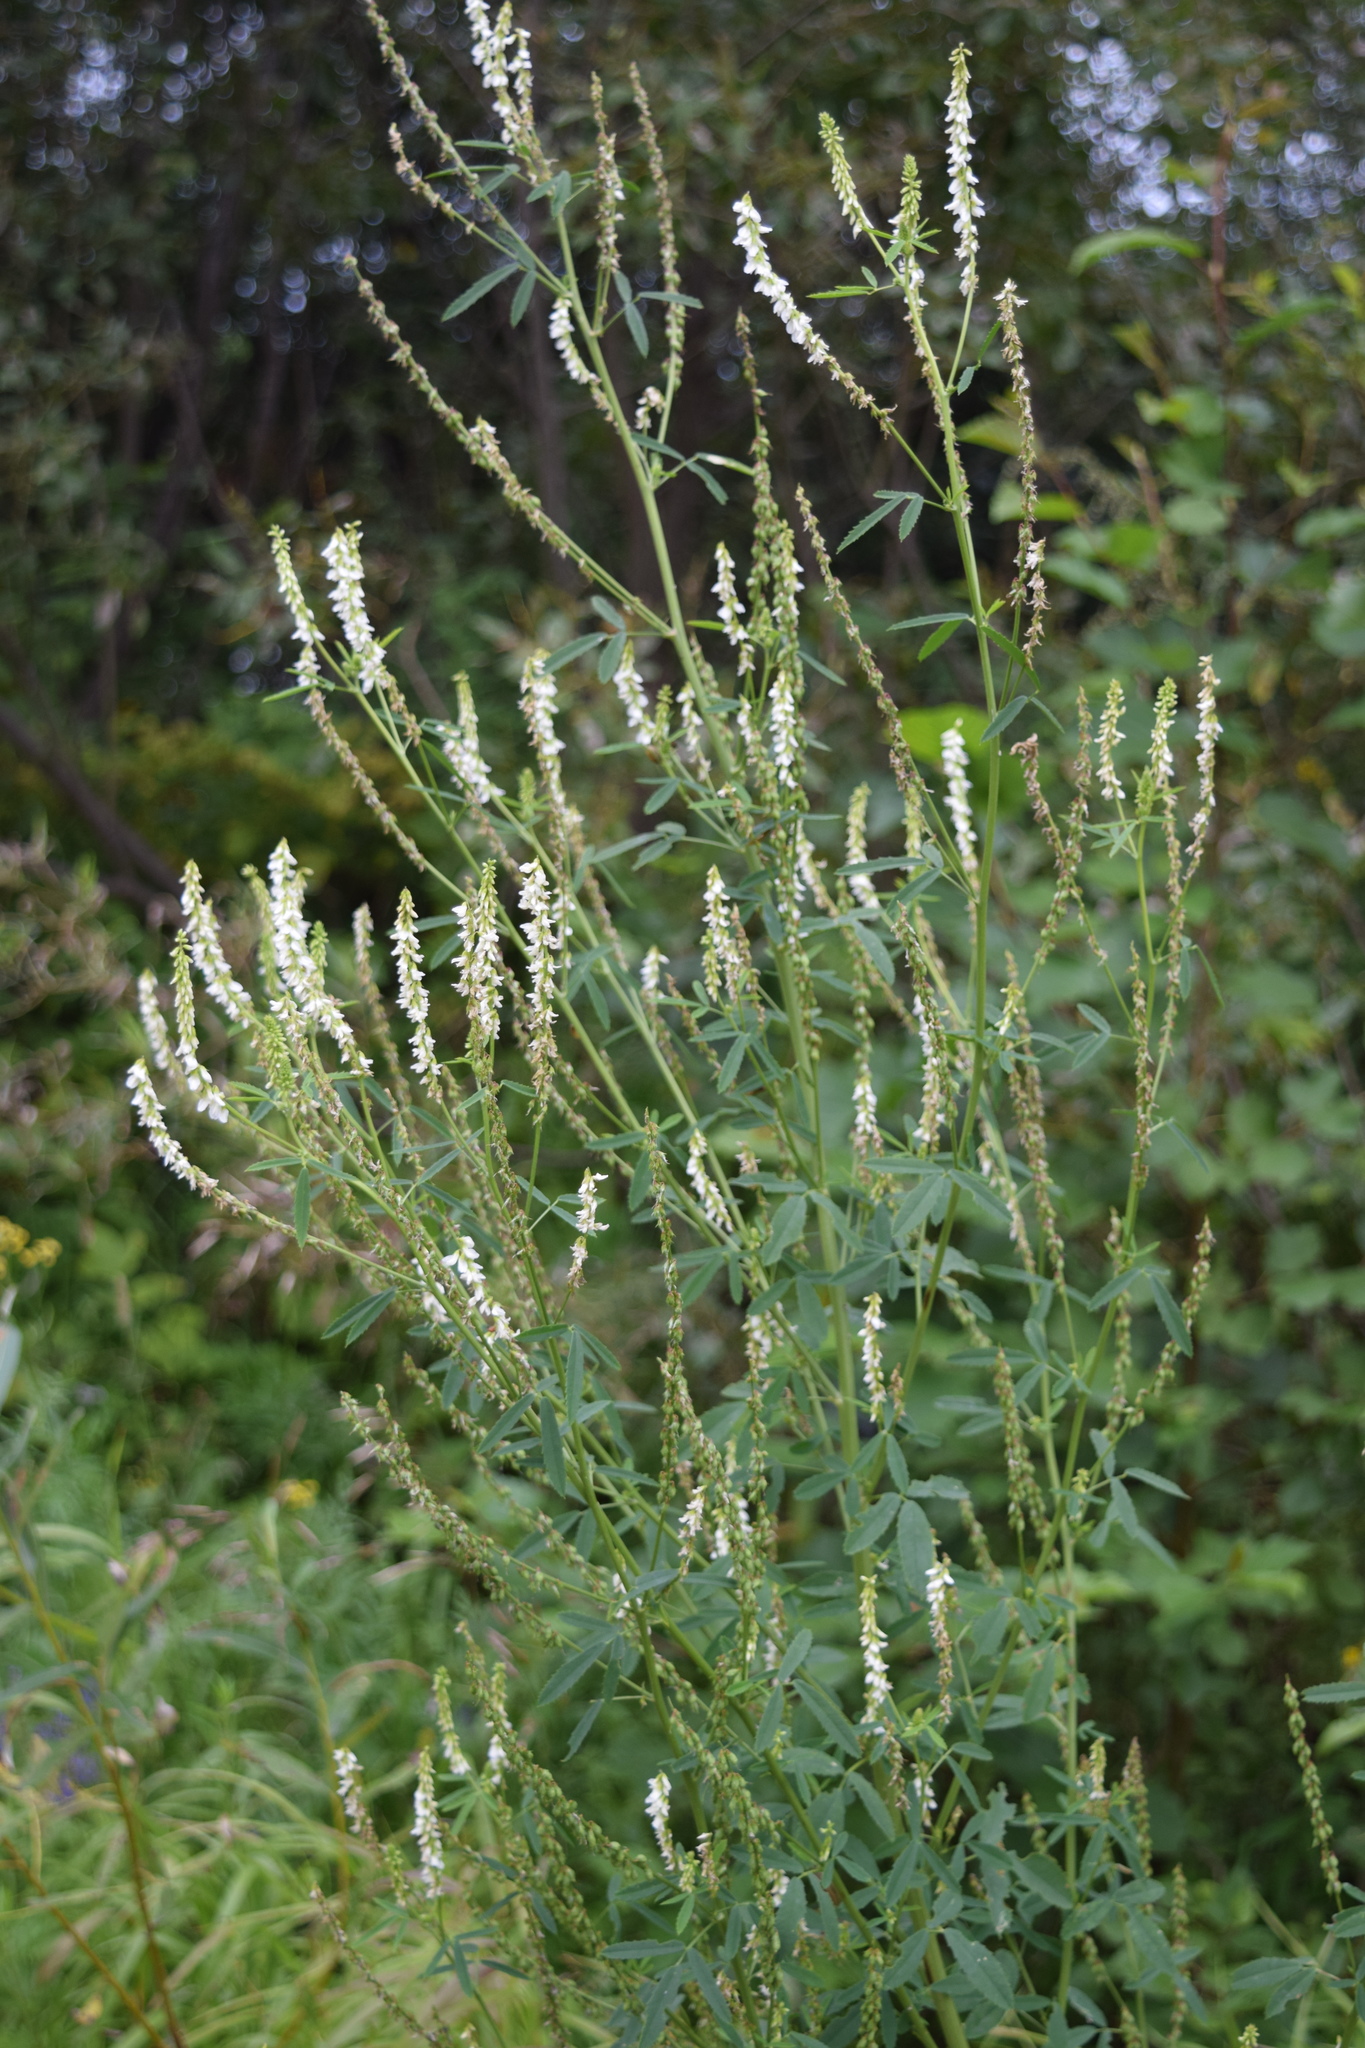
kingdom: Plantae
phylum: Tracheophyta
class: Magnoliopsida
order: Fabales
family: Fabaceae
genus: Melilotus
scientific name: Melilotus albus
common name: White melilot
